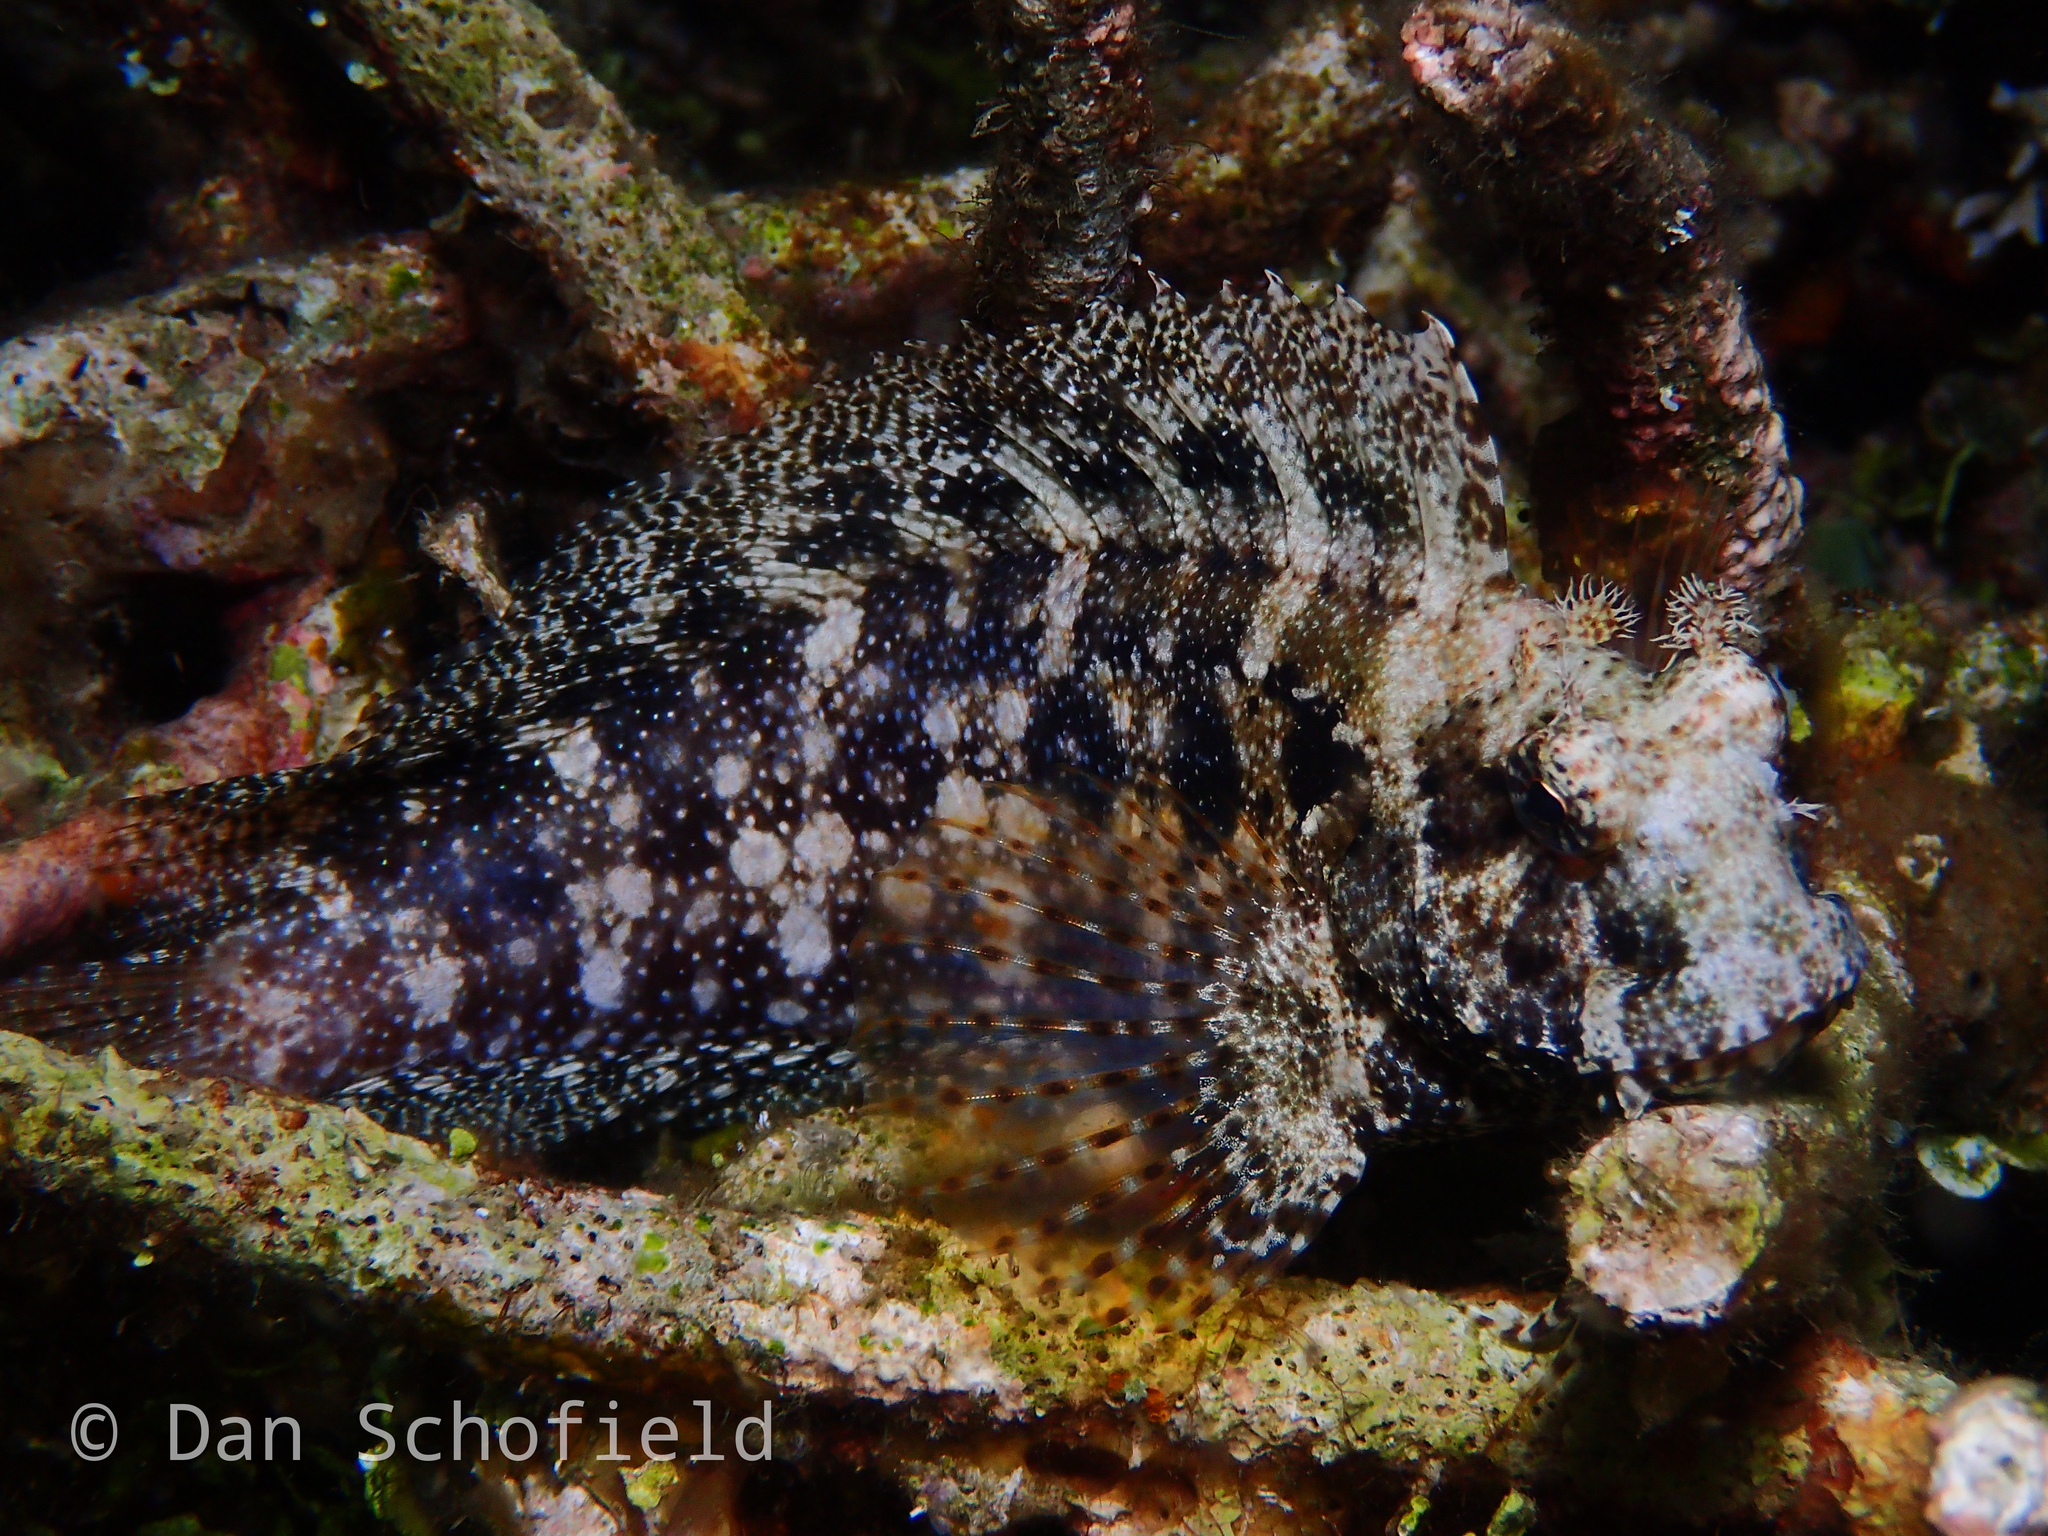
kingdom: Animalia
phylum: Chordata
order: Perciformes
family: Blenniidae
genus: Salarias
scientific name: Salarias ceramensis
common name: Seram blenny
